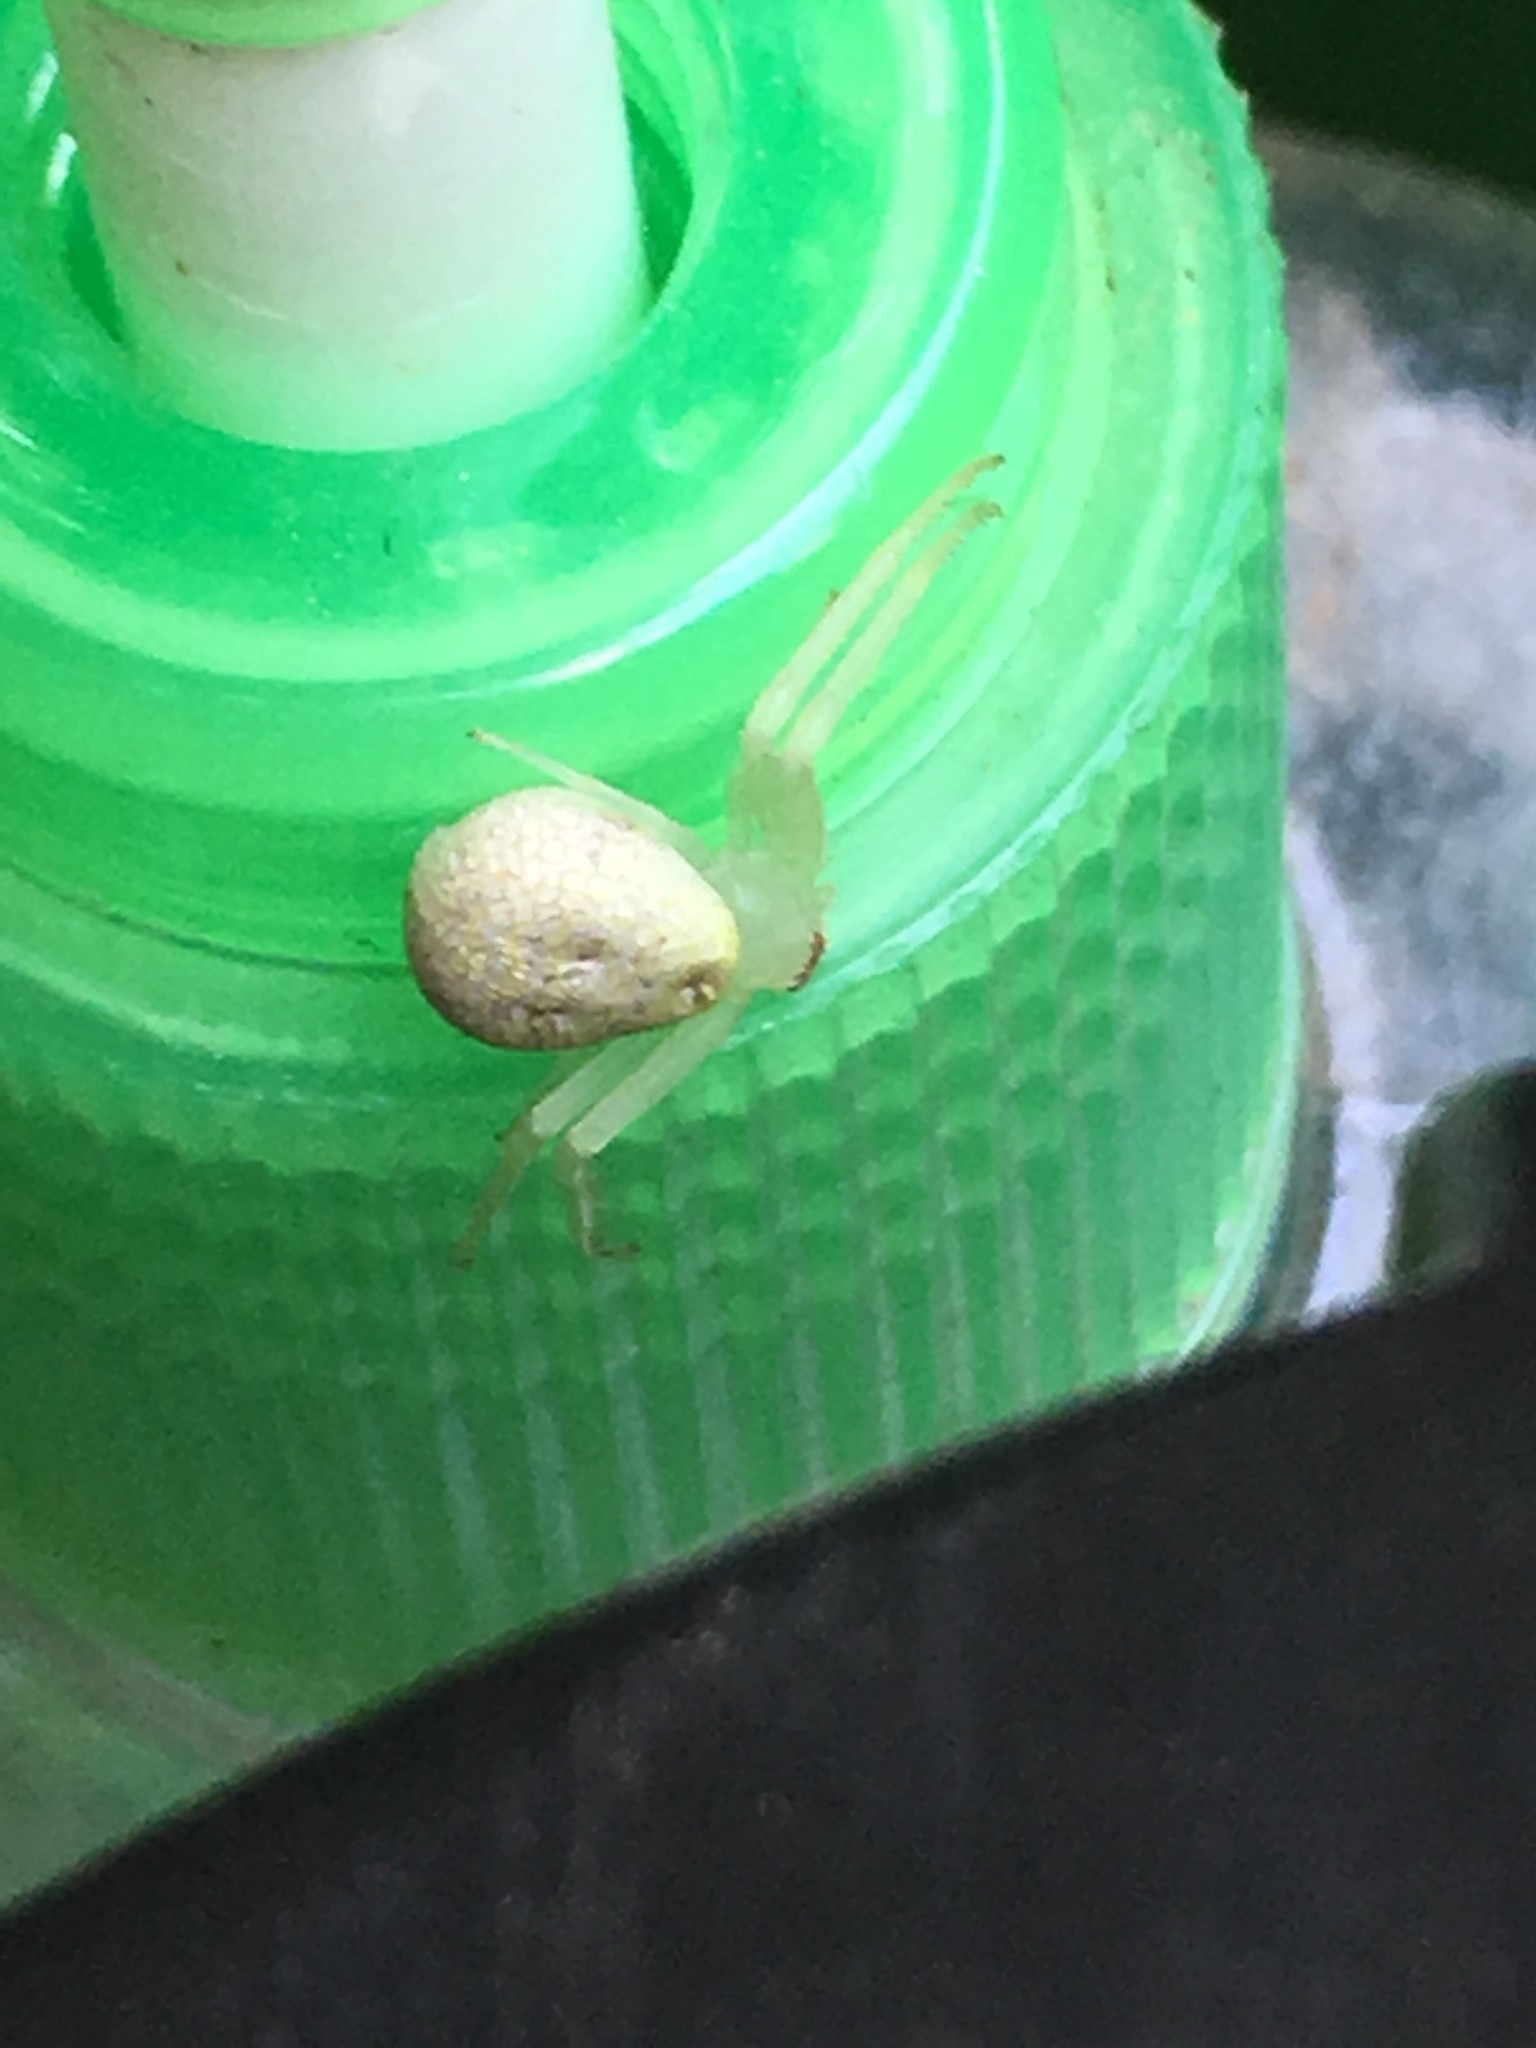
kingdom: Animalia
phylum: Arthropoda
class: Arachnida
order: Araneae
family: Thomisidae
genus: Misumessus
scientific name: Misumessus oblongus
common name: American green crab spider
